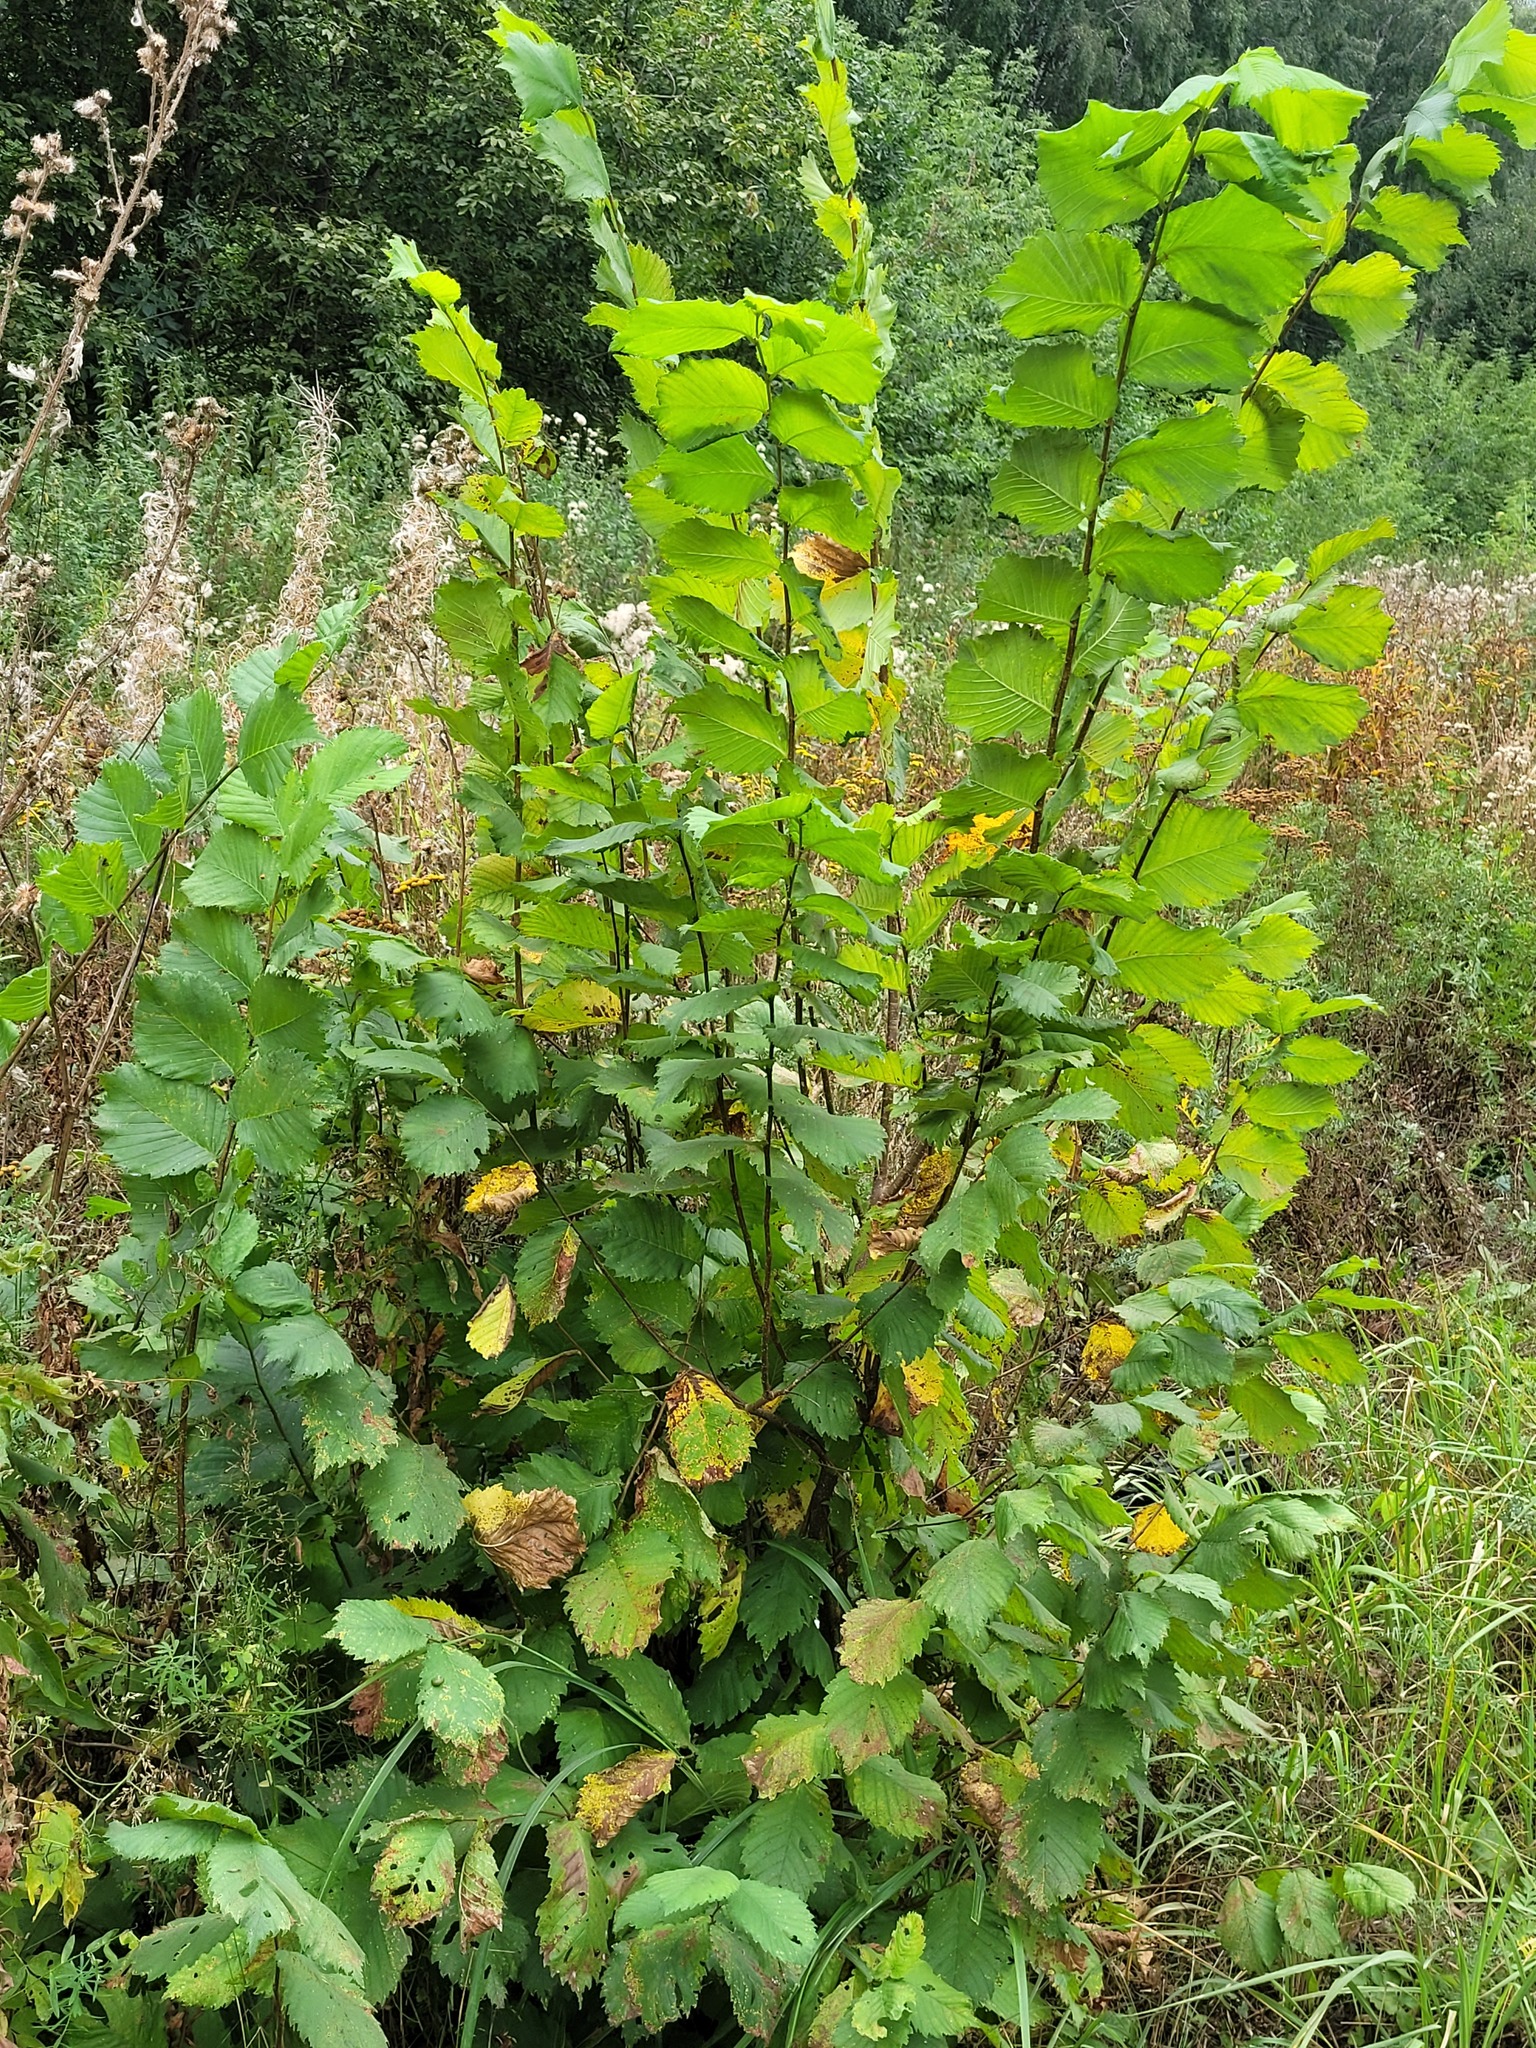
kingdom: Plantae
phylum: Tracheophyta
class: Magnoliopsida
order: Rosales
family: Ulmaceae
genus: Ulmus
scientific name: Ulmus laevis
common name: European white-elm
